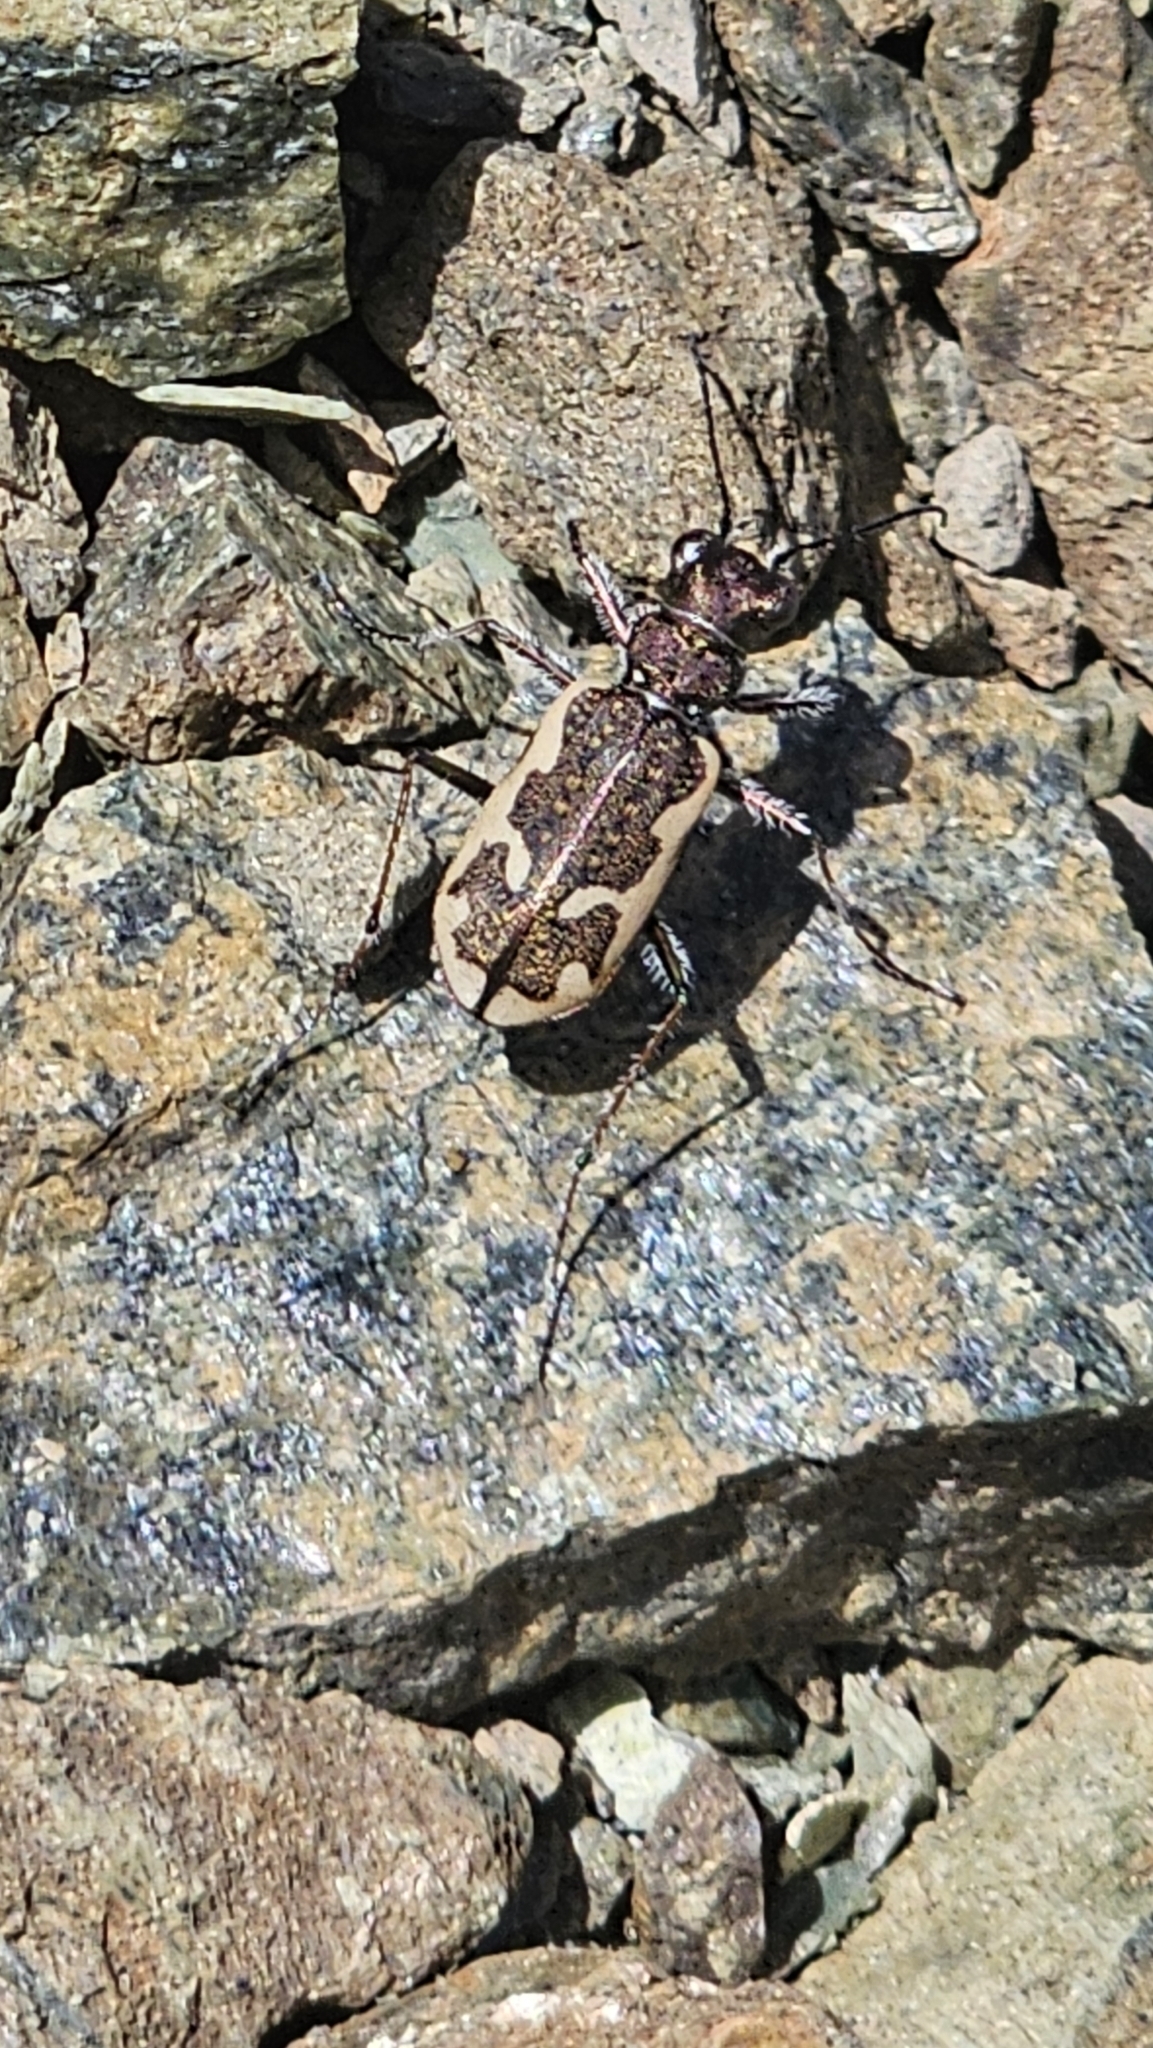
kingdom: Animalia
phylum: Arthropoda
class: Insecta
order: Coleoptera
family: Carabidae
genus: Neocicindela
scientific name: Neocicindela tuberculata
